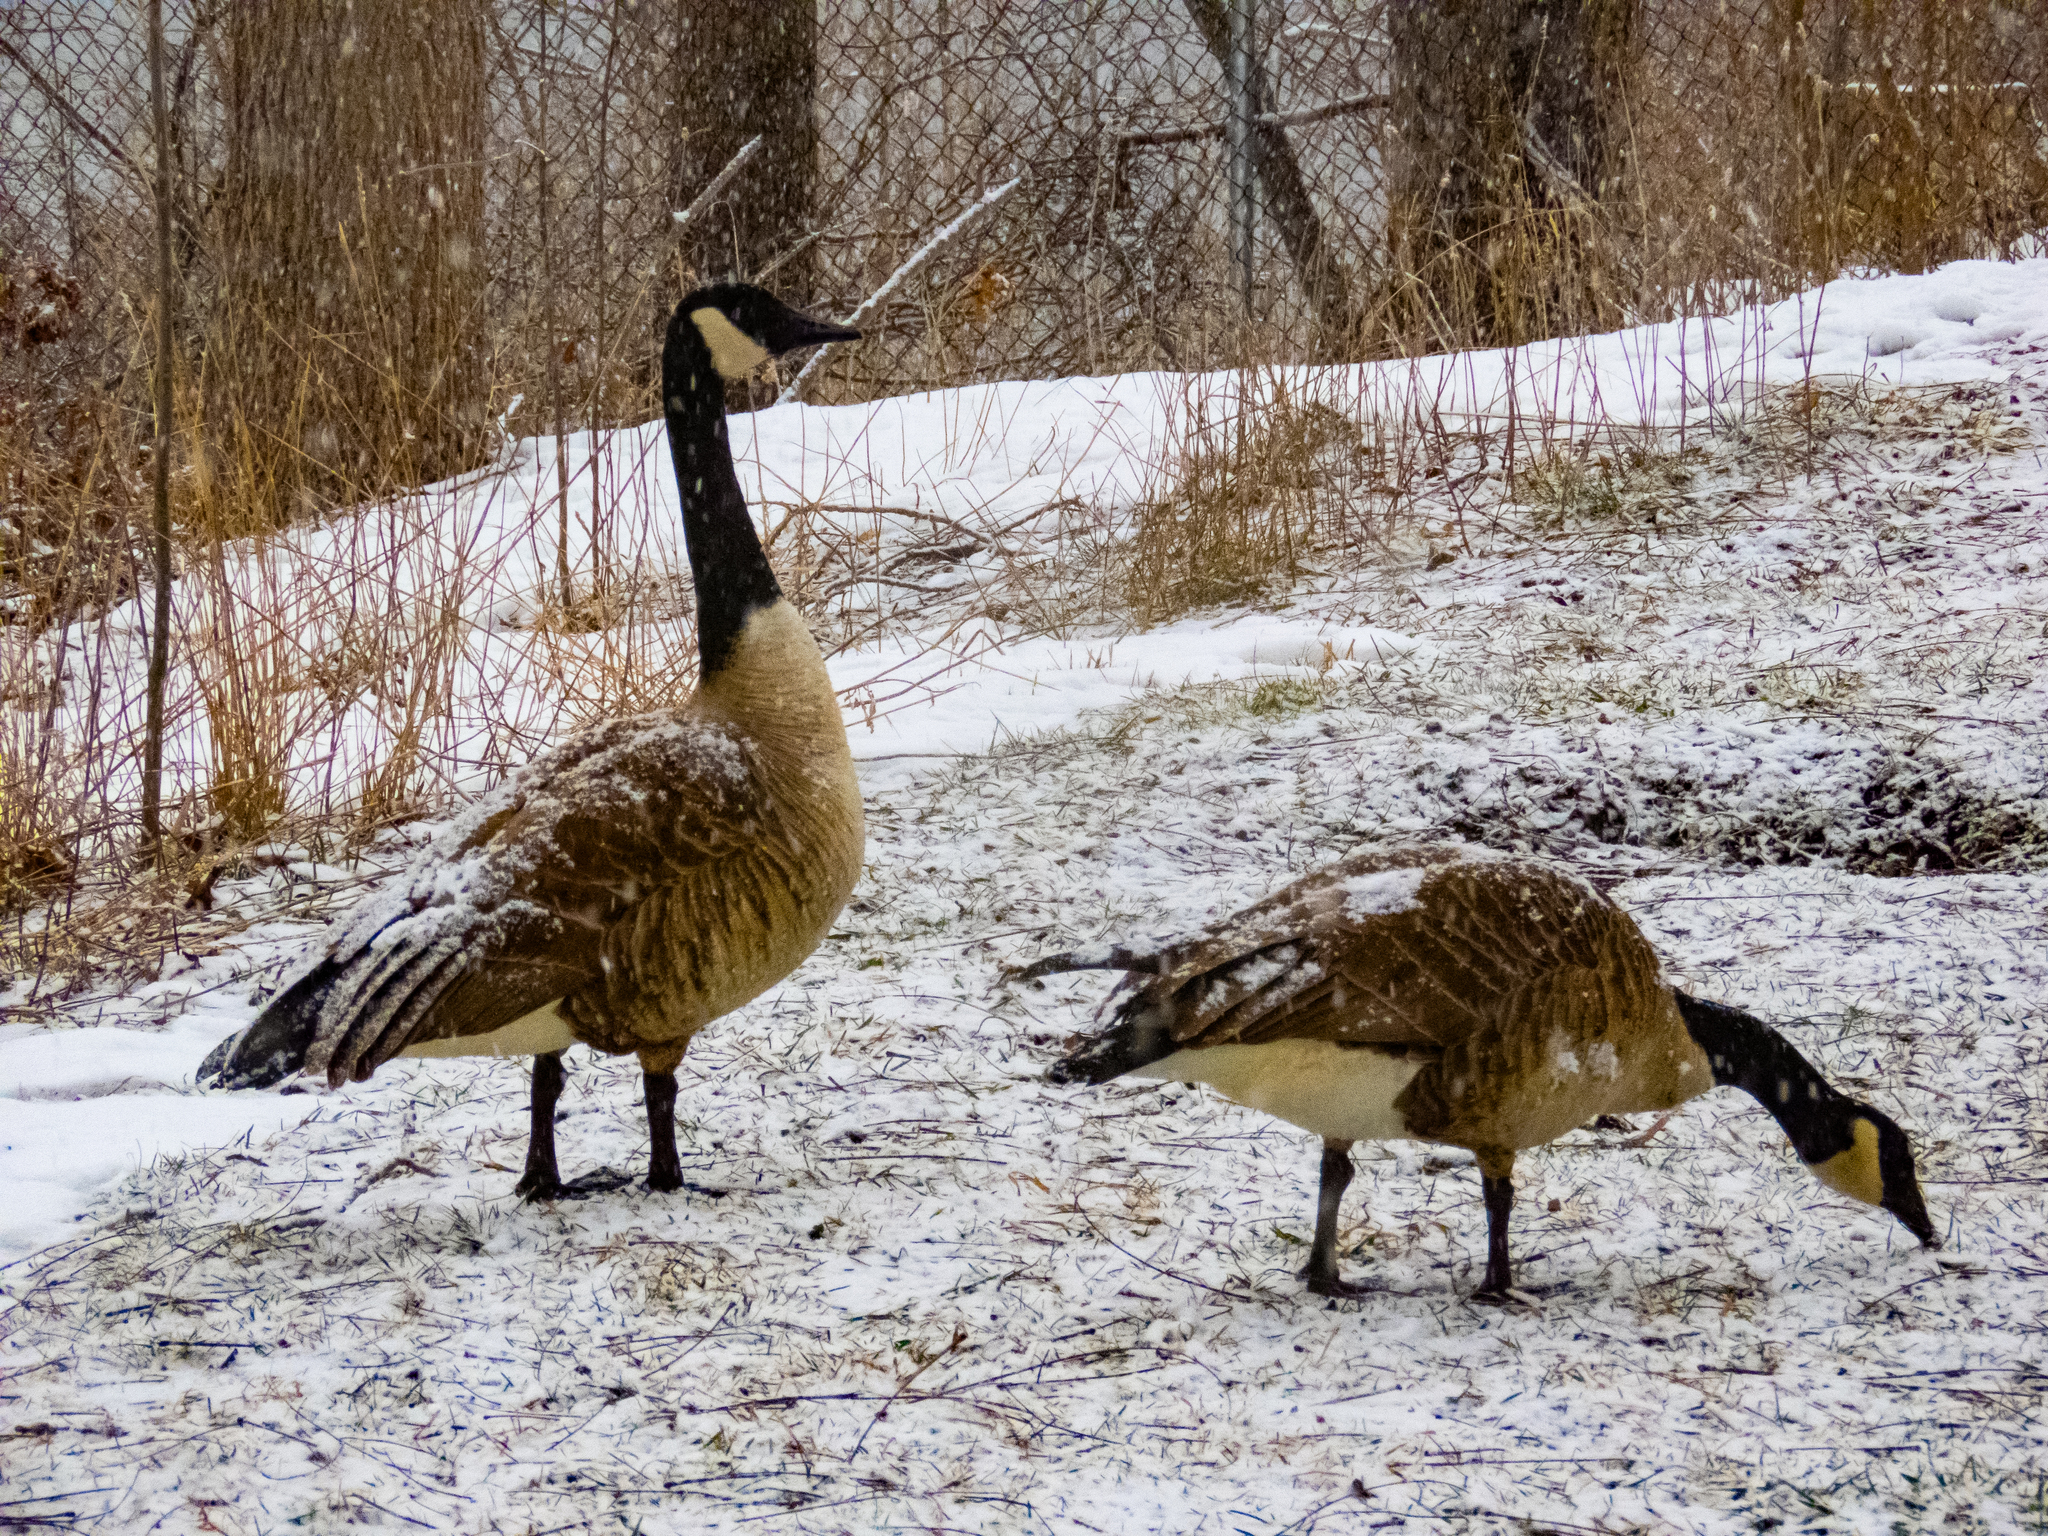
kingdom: Animalia
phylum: Chordata
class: Aves
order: Anseriformes
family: Anatidae
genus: Branta
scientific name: Branta canadensis
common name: Canada goose
